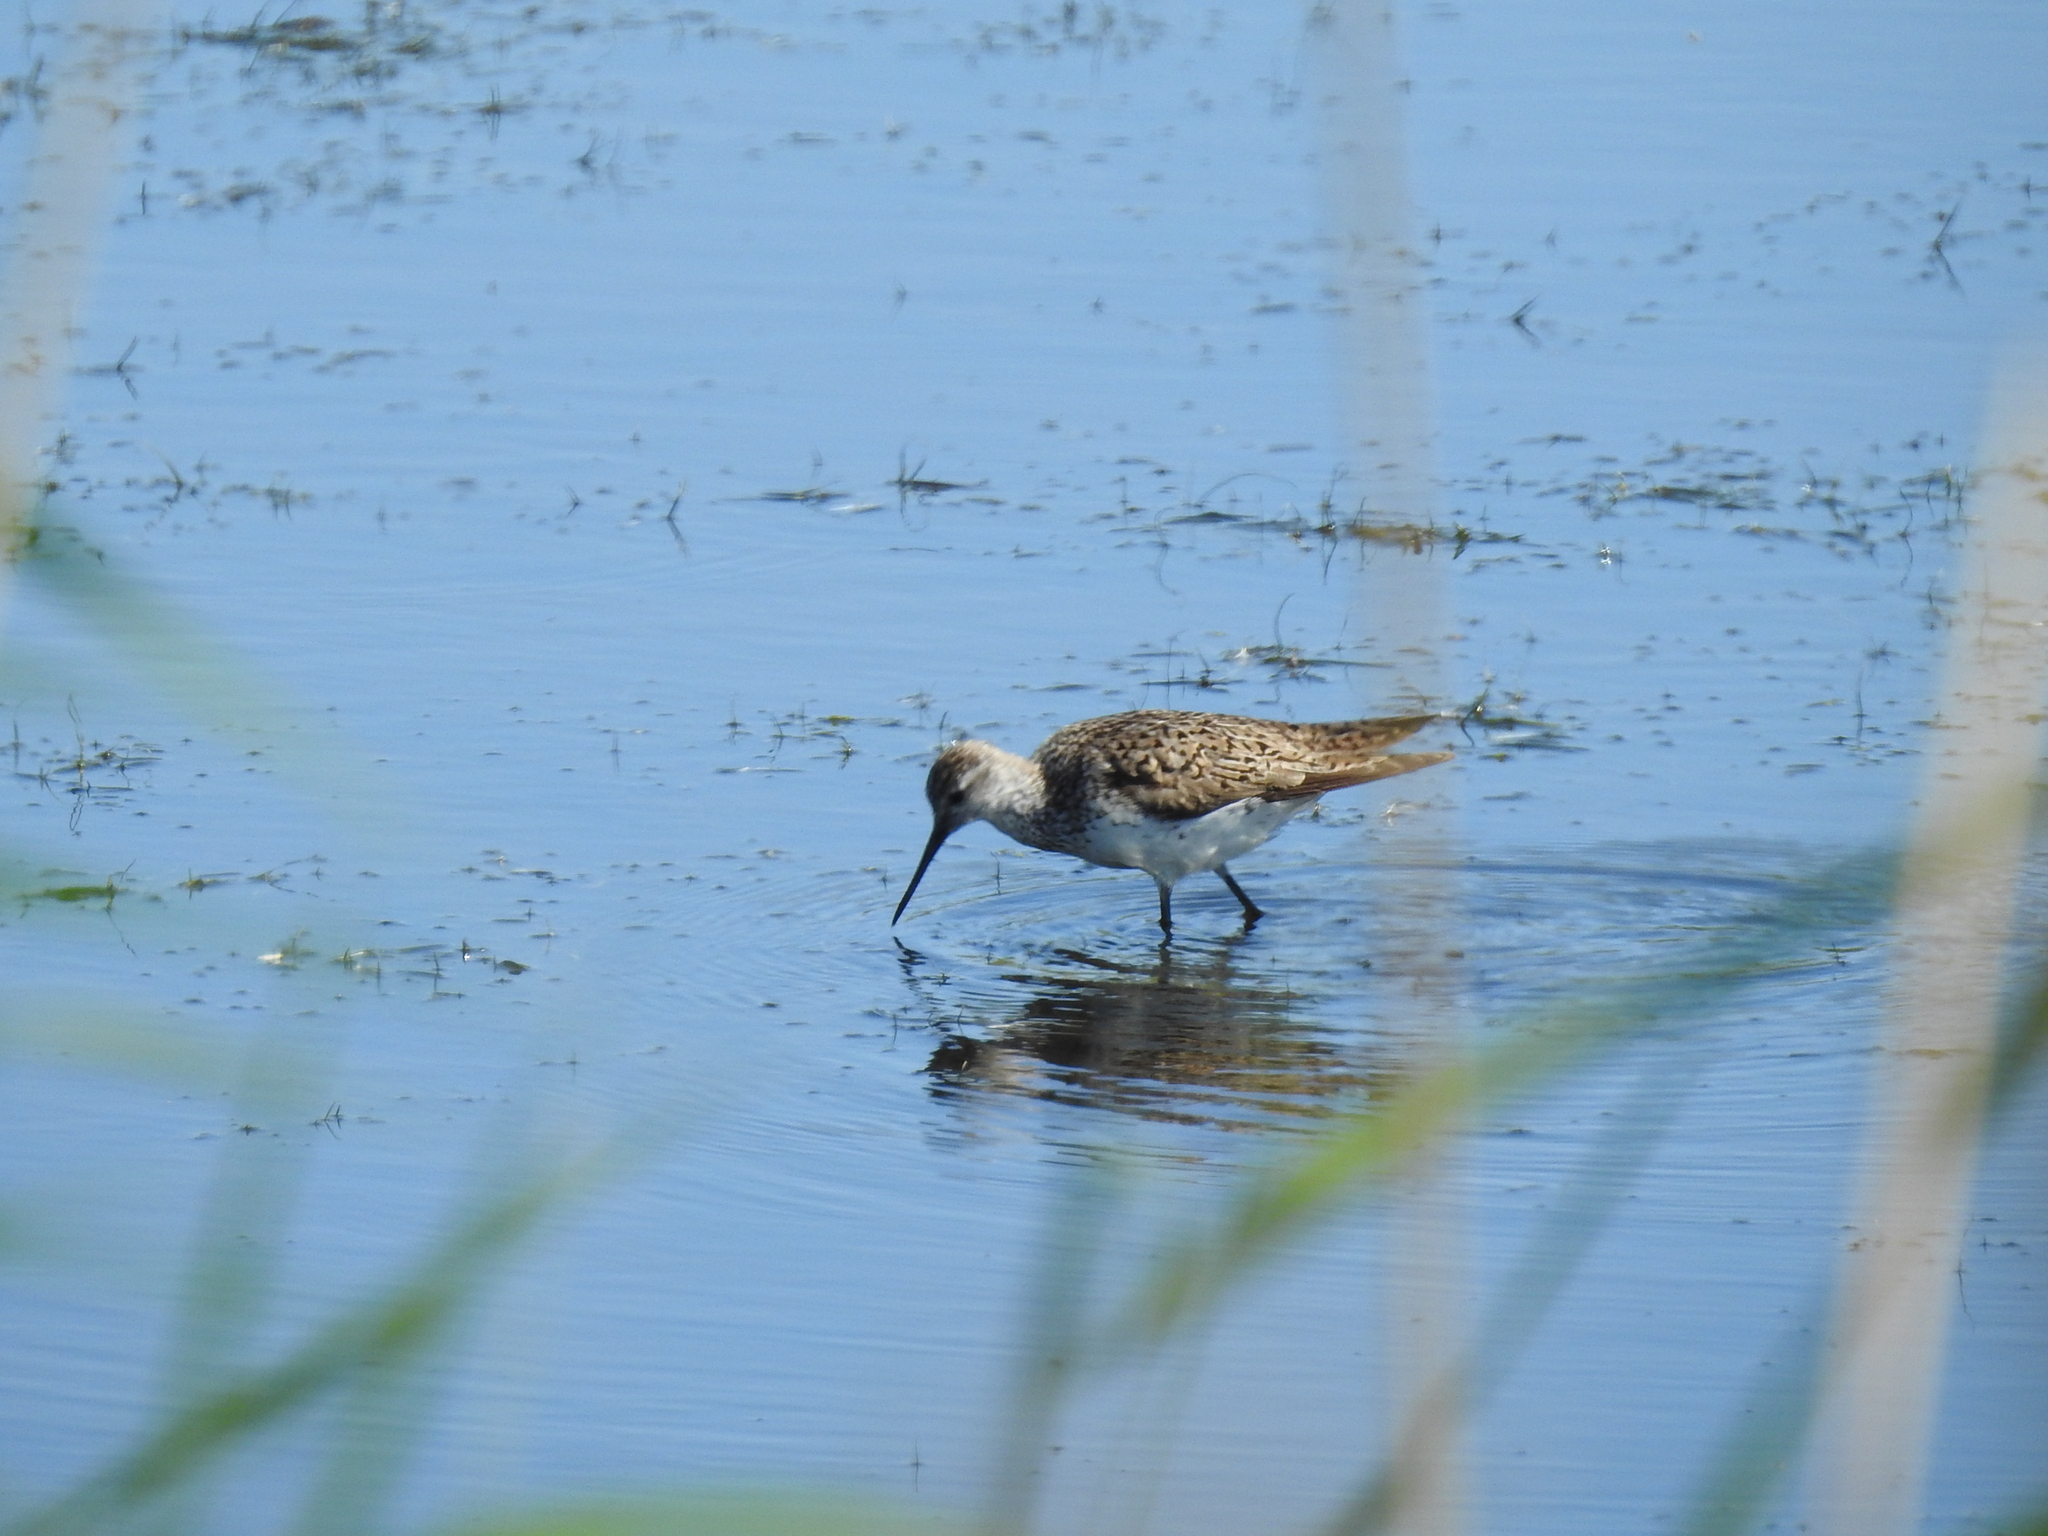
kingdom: Animalia
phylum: Chordata
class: Aves
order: Charadriiformes
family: Scolopacidae
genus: Tringa
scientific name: Tringa stagnatilis
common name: Marsh sandpiper
